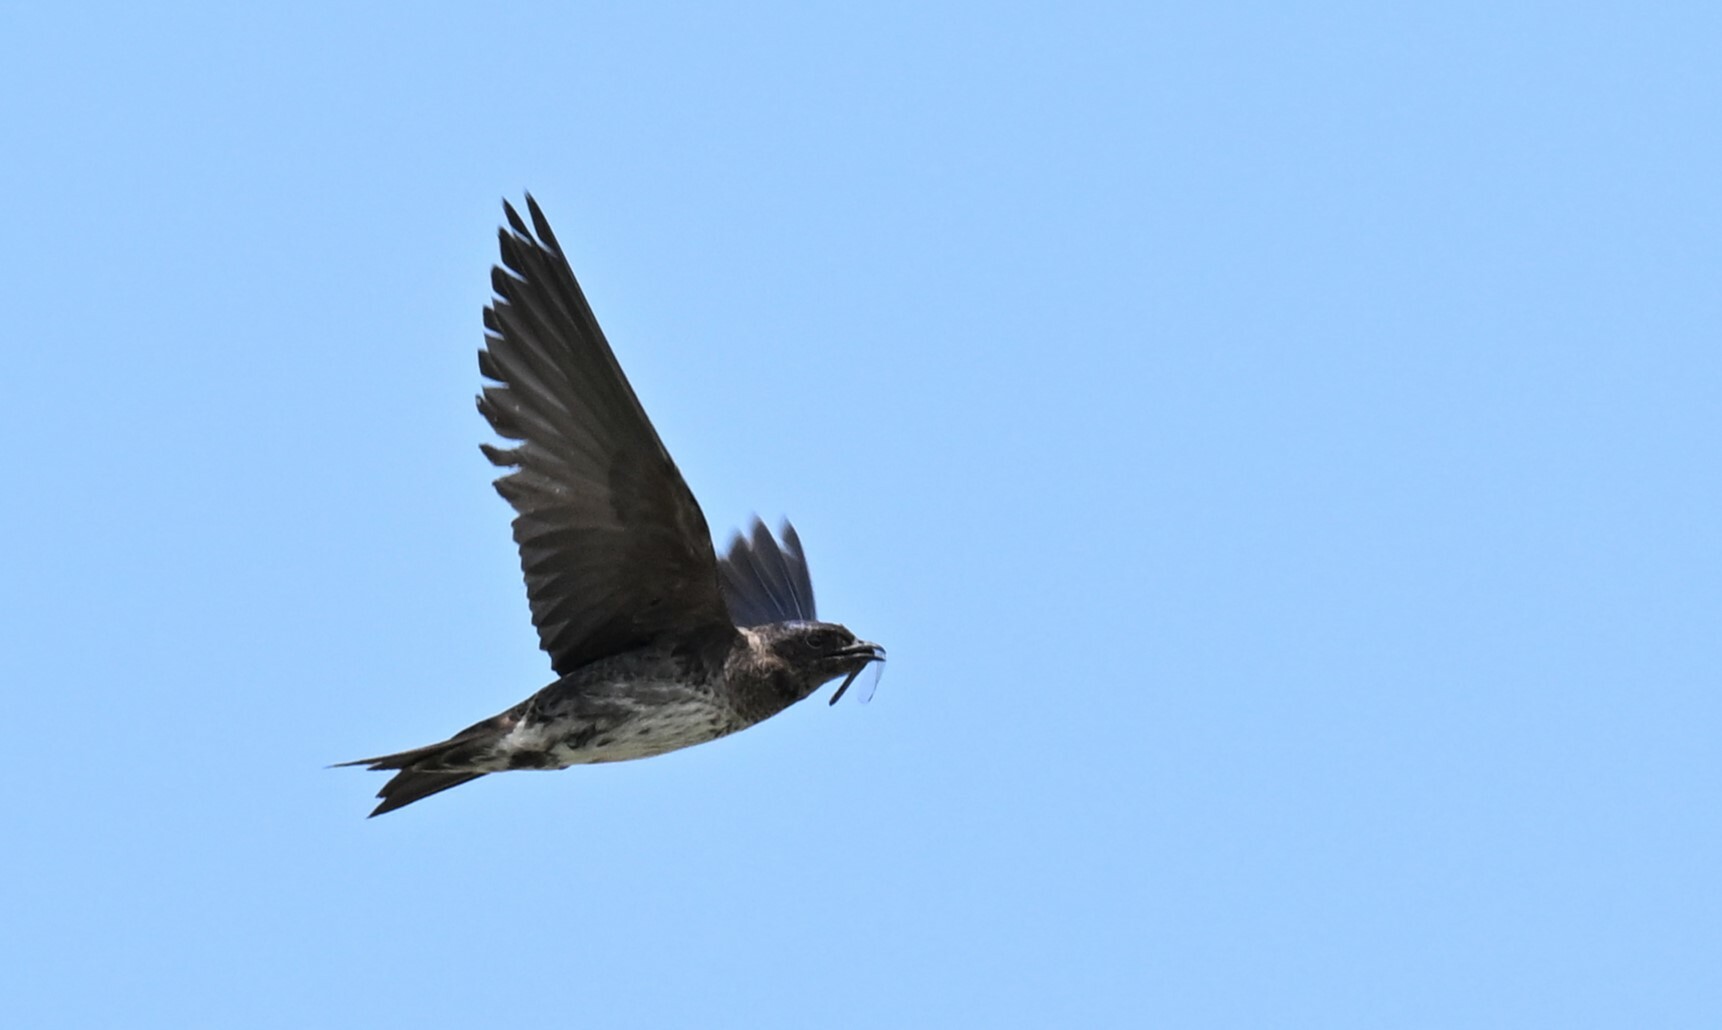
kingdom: Animalia
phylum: Chordata
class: Aves
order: Passeriformes
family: Hirundinidae
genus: Progne
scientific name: Progne subis
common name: Purple martin
